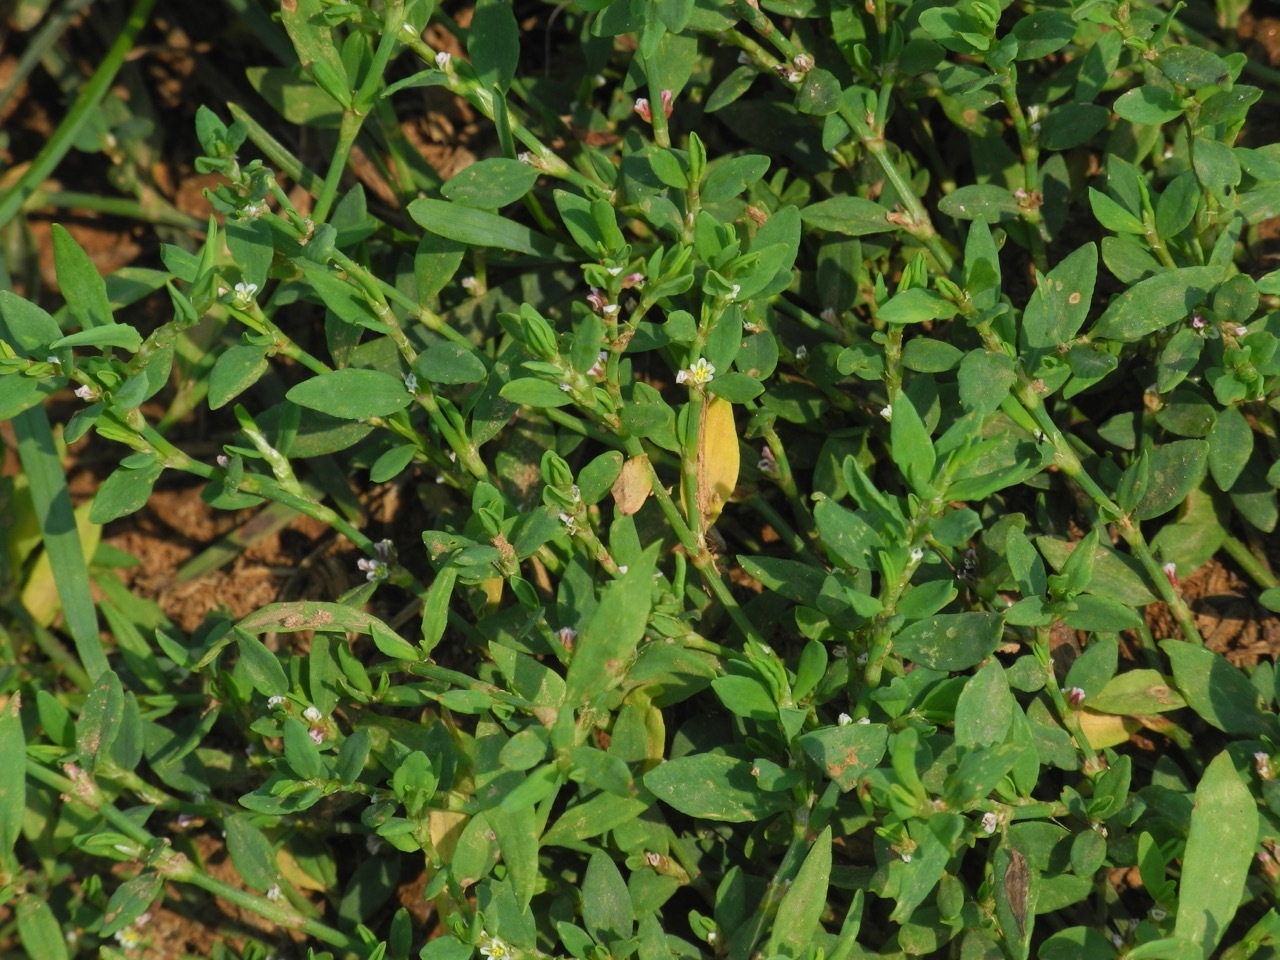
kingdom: Plantae
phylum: Tracheophyta
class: Magnoliopsida
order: Caryophyllales
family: Polygonaceae
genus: Polygonum
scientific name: Polygonum aviculare
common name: Prostrate knotweed
